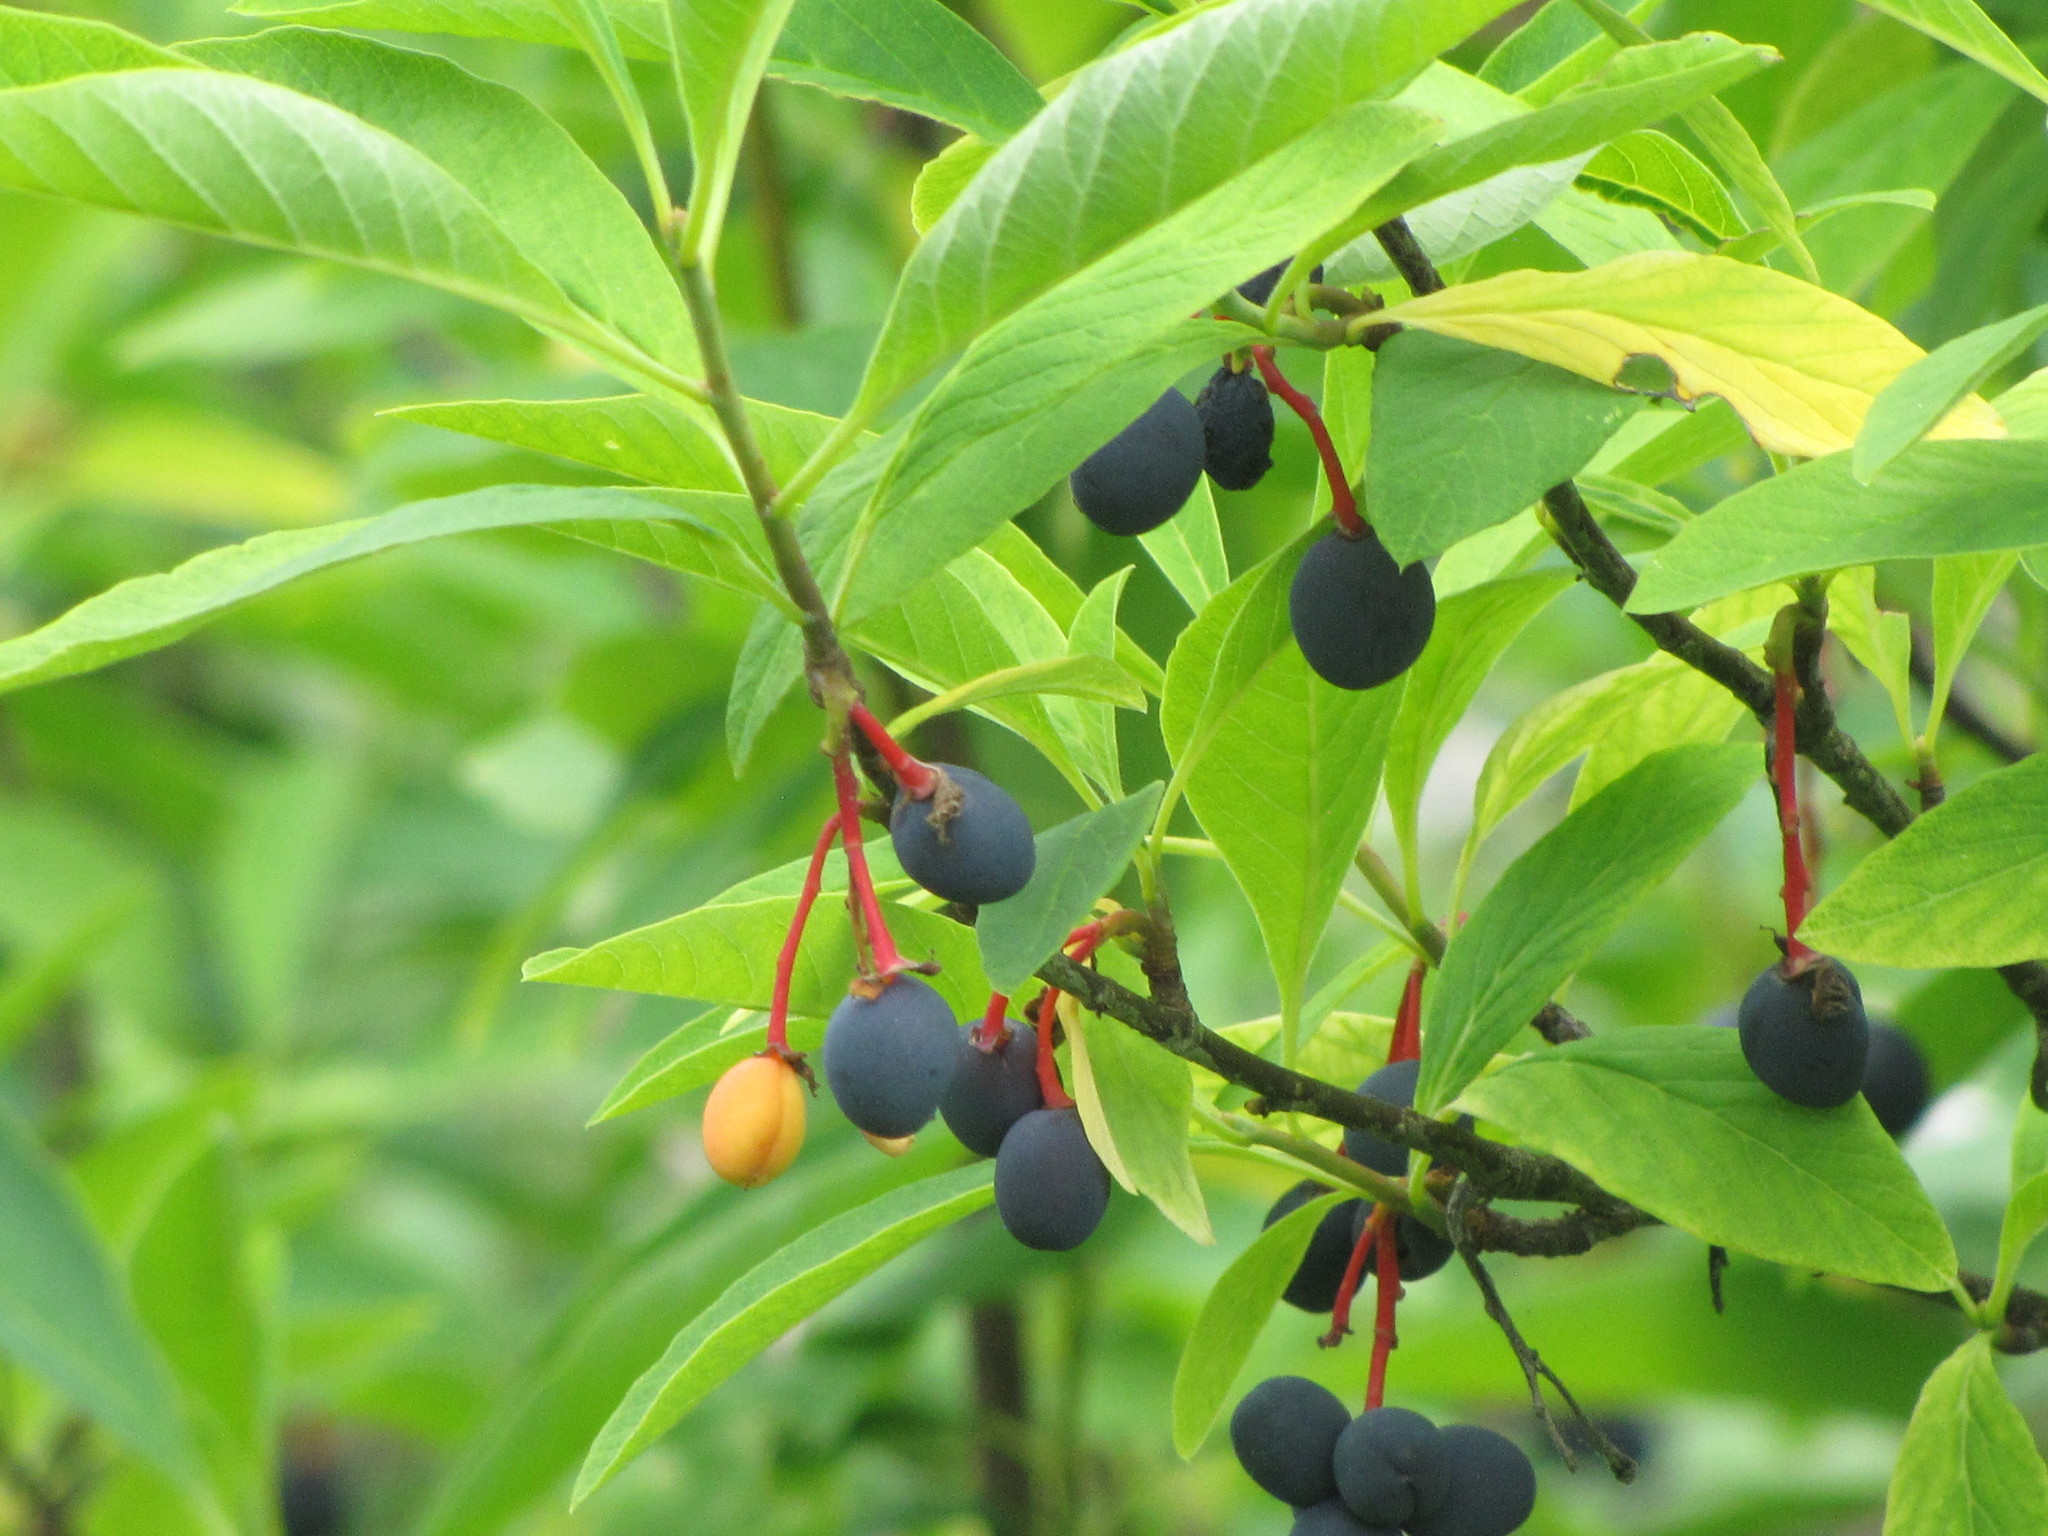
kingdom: Plantae
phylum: Tracheophyta
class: Magnoliopsida
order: Rosales
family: Rosaceae
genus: Oemleria
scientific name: Oemleria cerasiformis
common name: Osoberry
